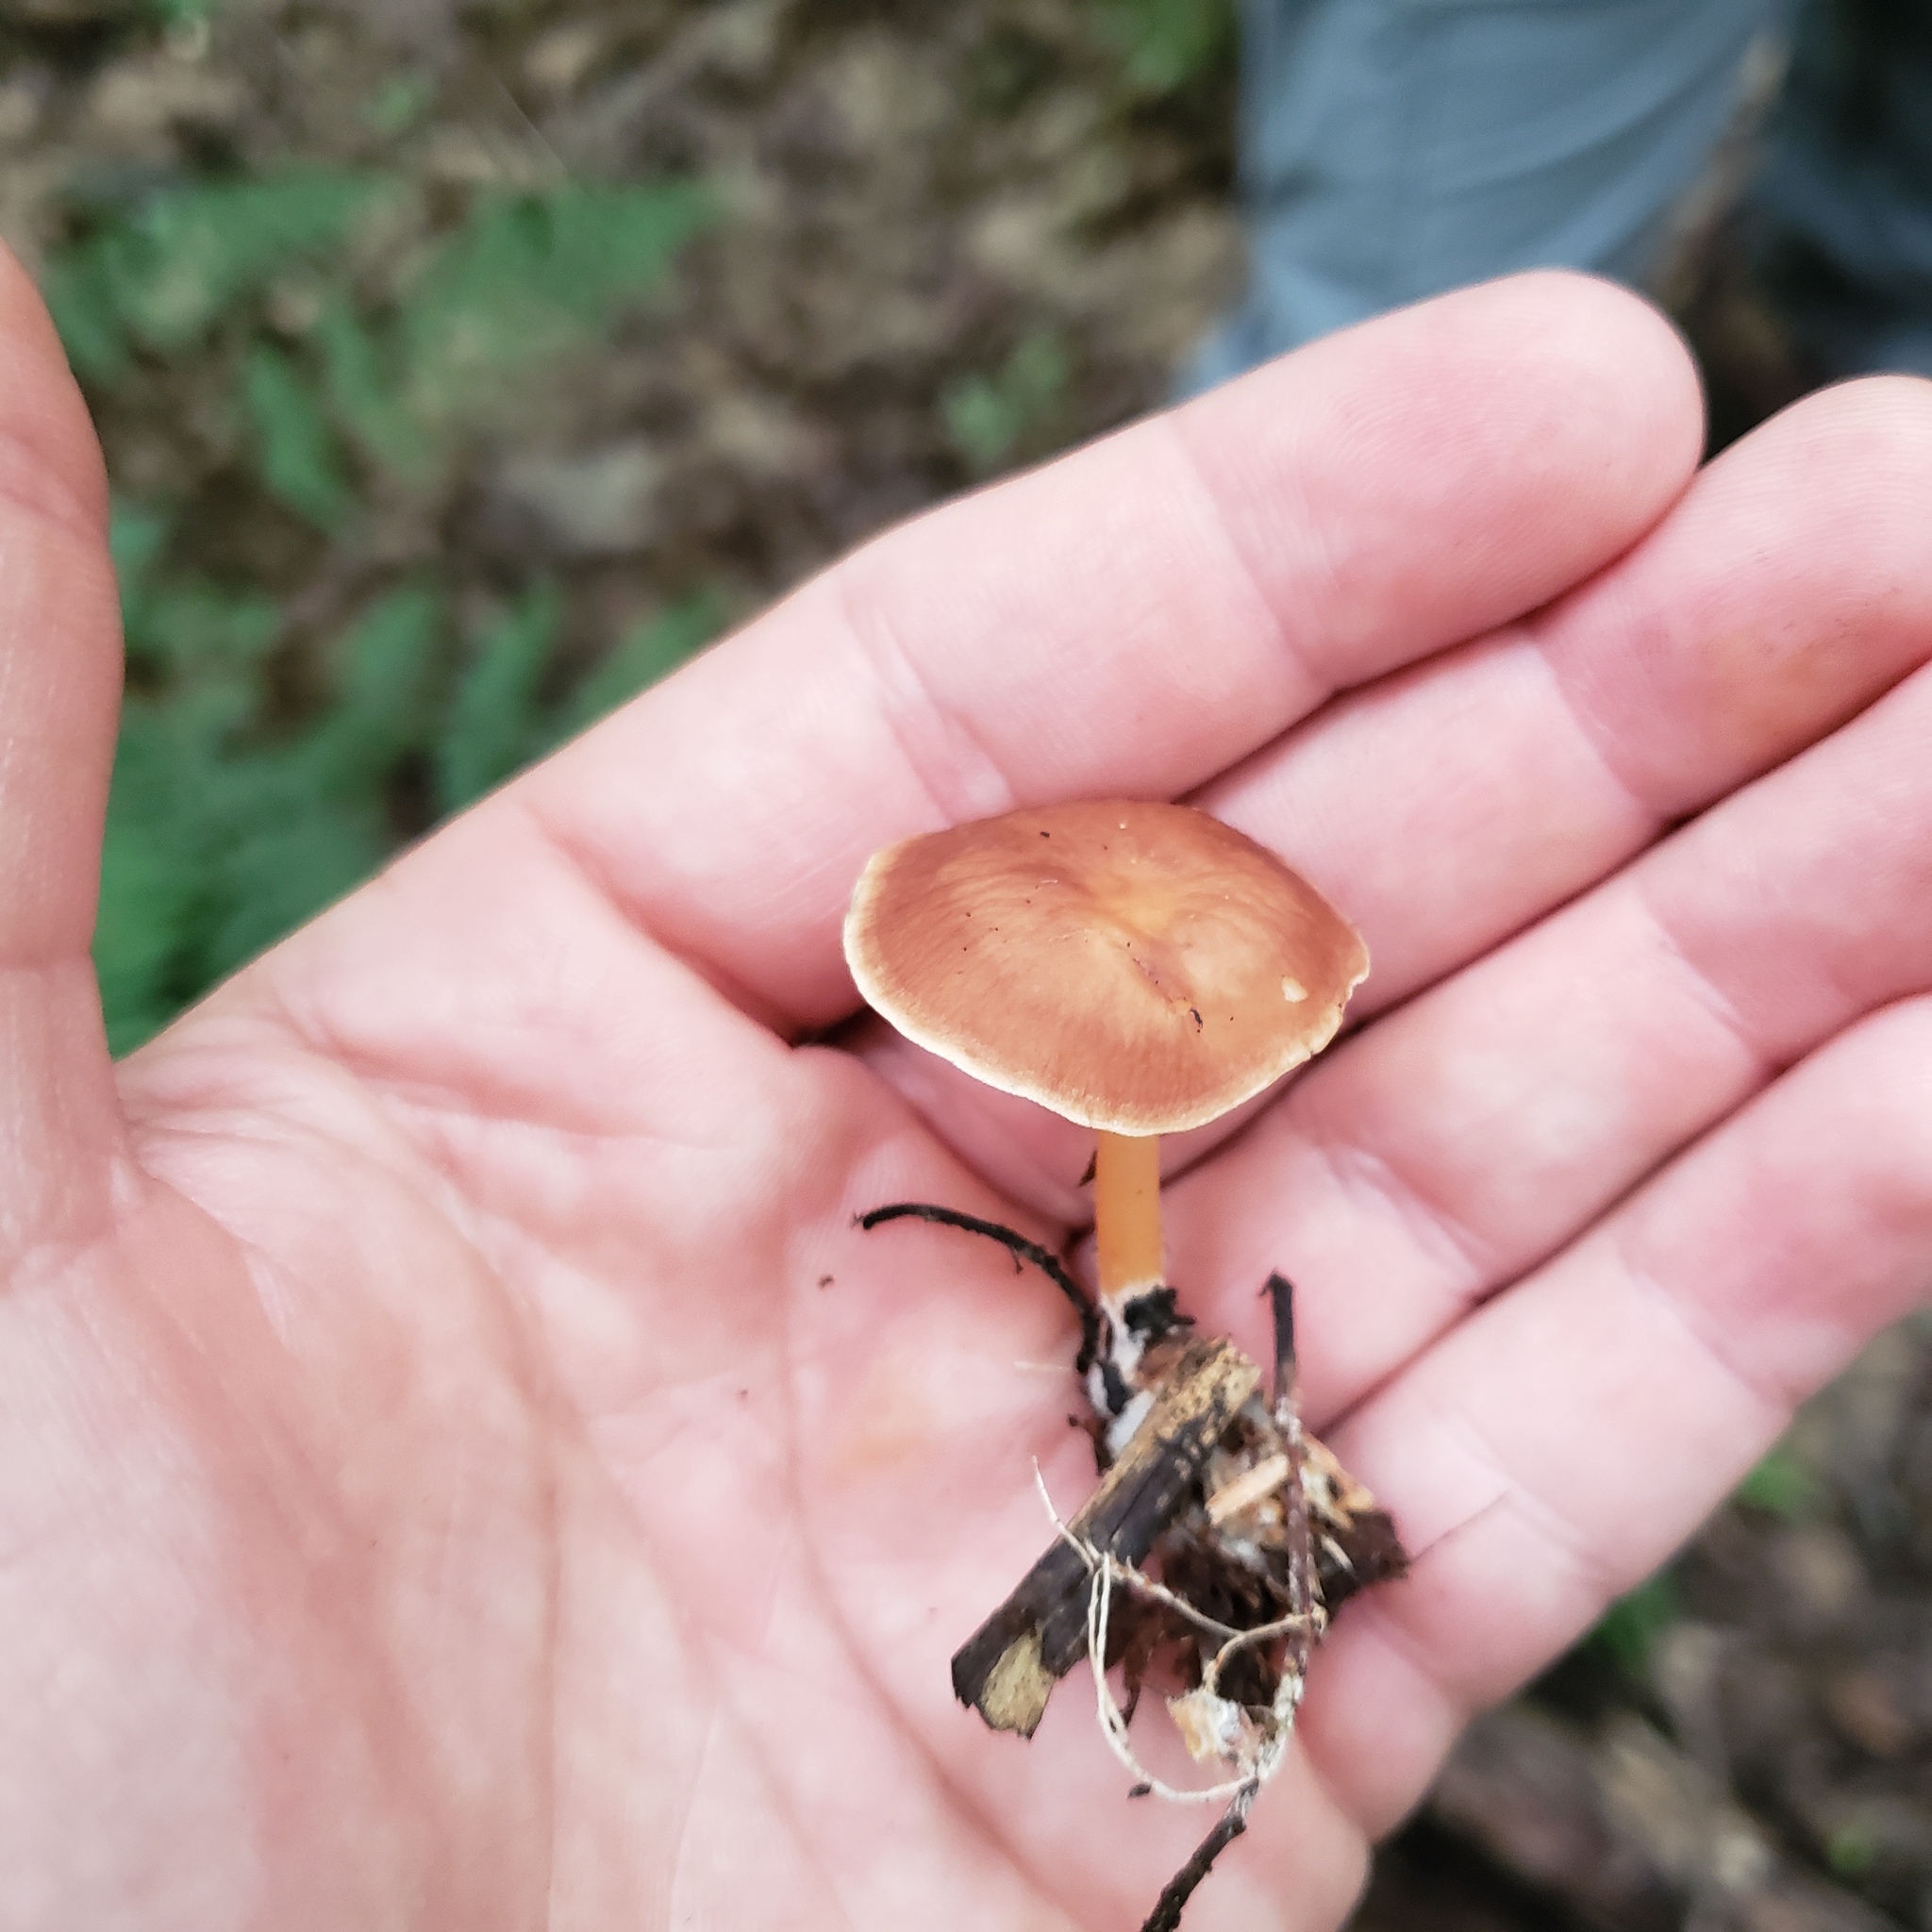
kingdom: Fungi
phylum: Basidiomycota
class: Agaricomycetes
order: Agaricales
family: Omphalotaceae
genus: Gymnopus
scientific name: Gymnopus dryophilus
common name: Penny top
